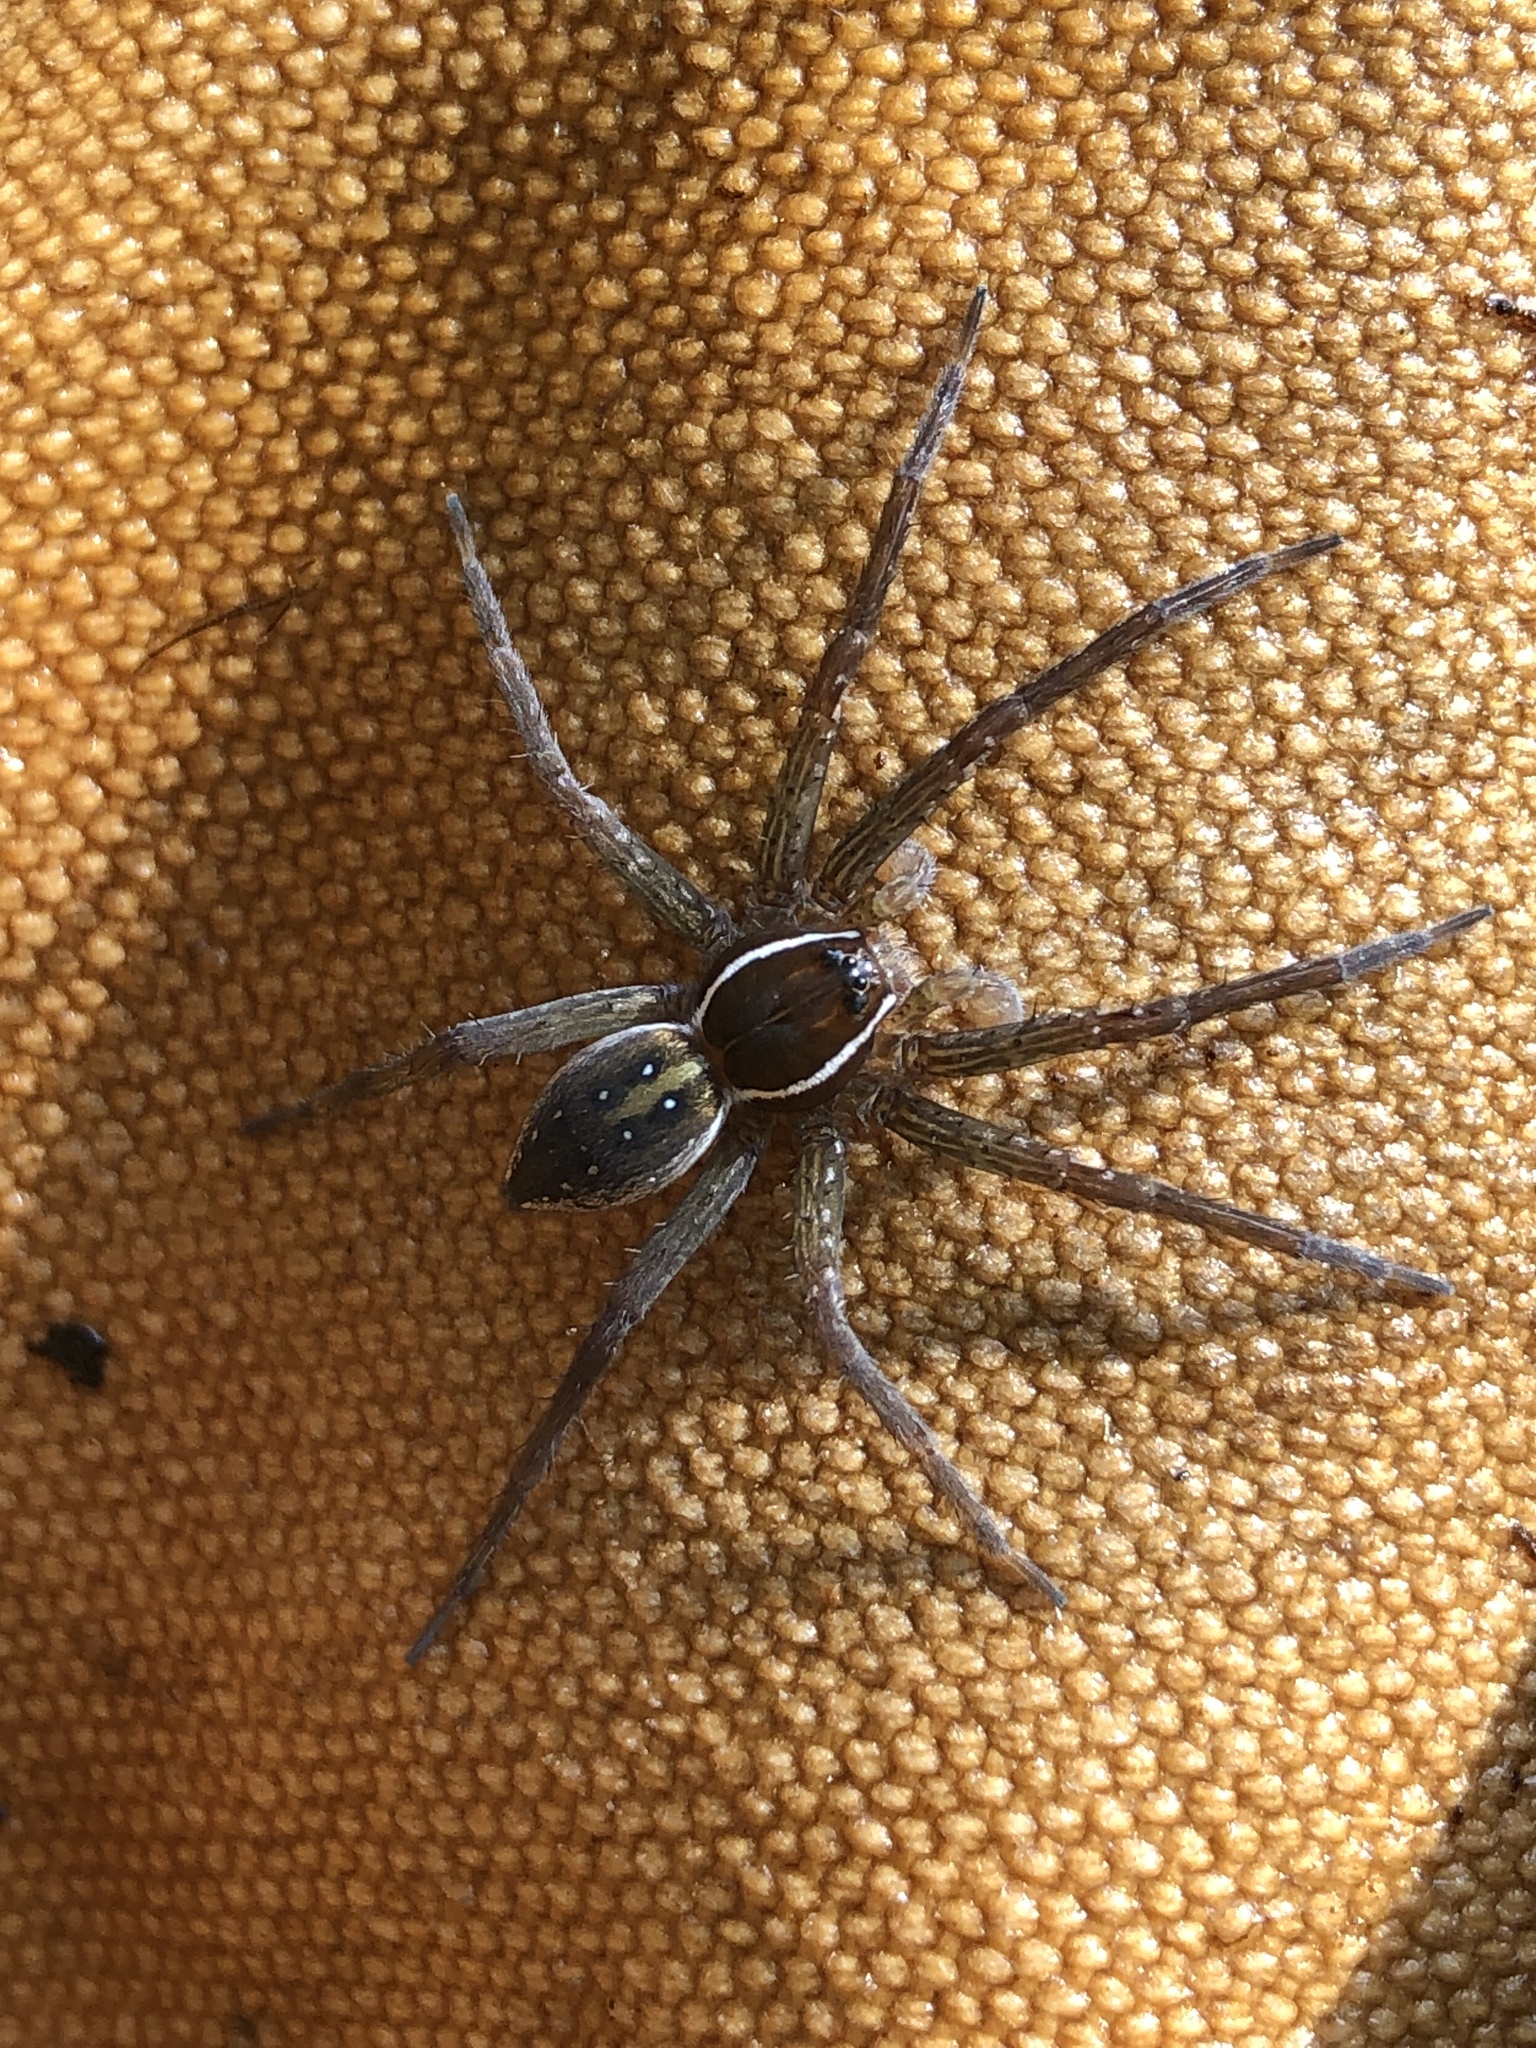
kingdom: Animalia
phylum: Arthropoda
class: Arachnida
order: Araneae
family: Pisauridae
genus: Dolomedes
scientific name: Dolomedes triton
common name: Six-spotted fishing spider
